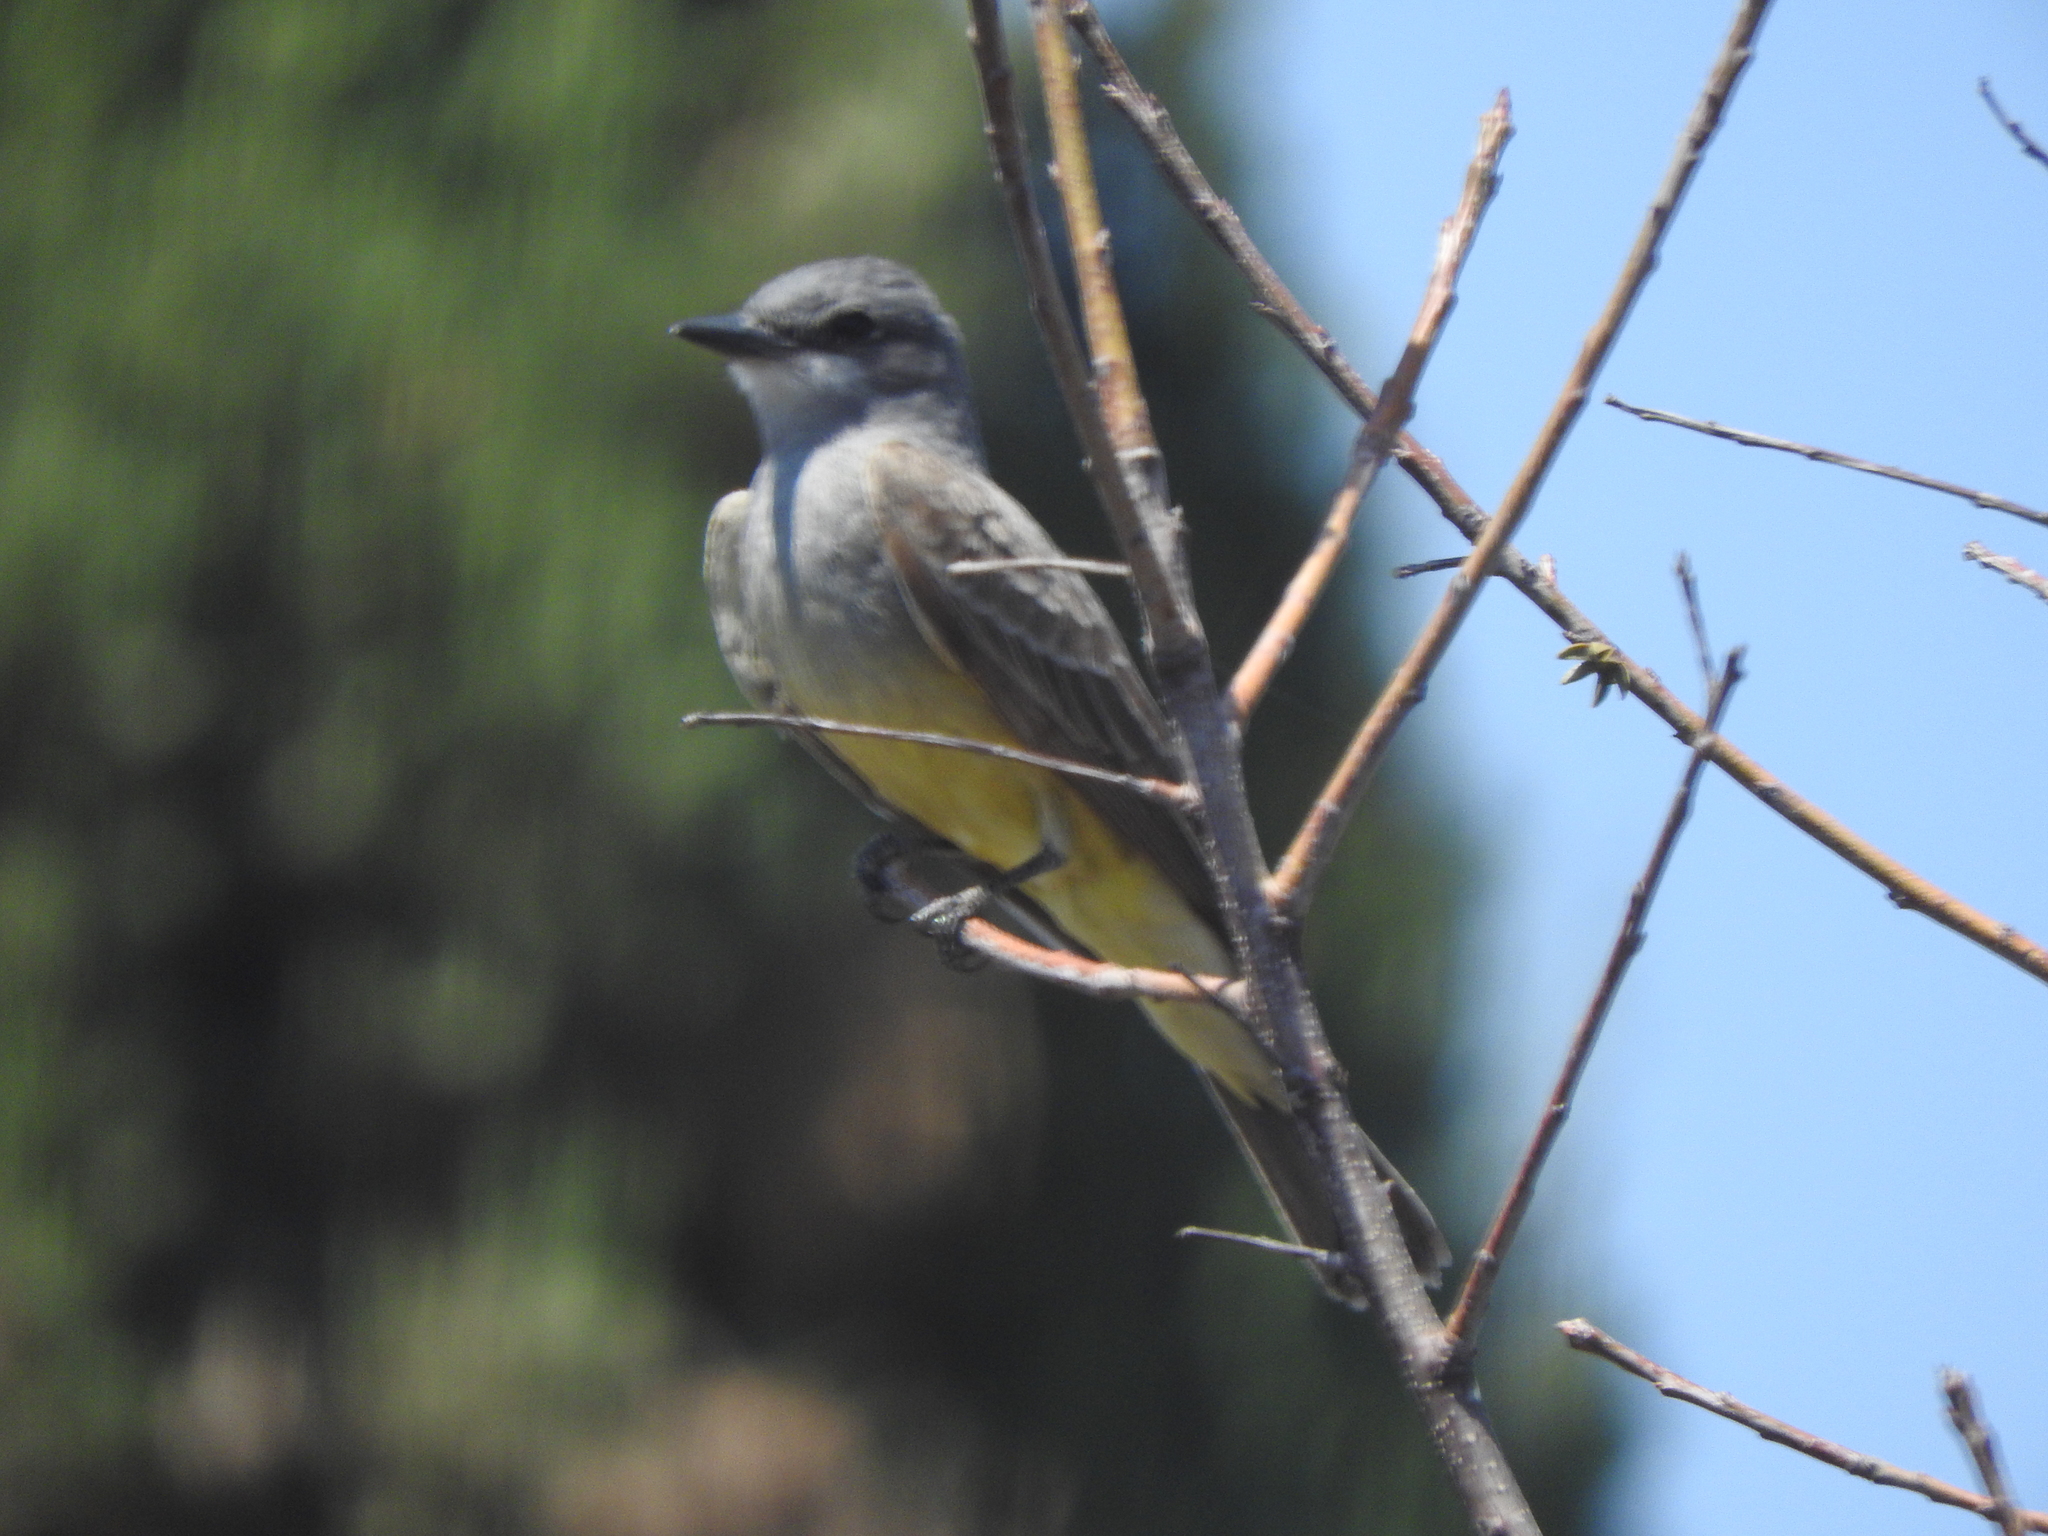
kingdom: Animalia
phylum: Chordata
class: Aves
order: Passeriformes
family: Tyrannidae
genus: Tyrannus
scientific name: Tyrannus vociferans
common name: Cassin's kingbird
